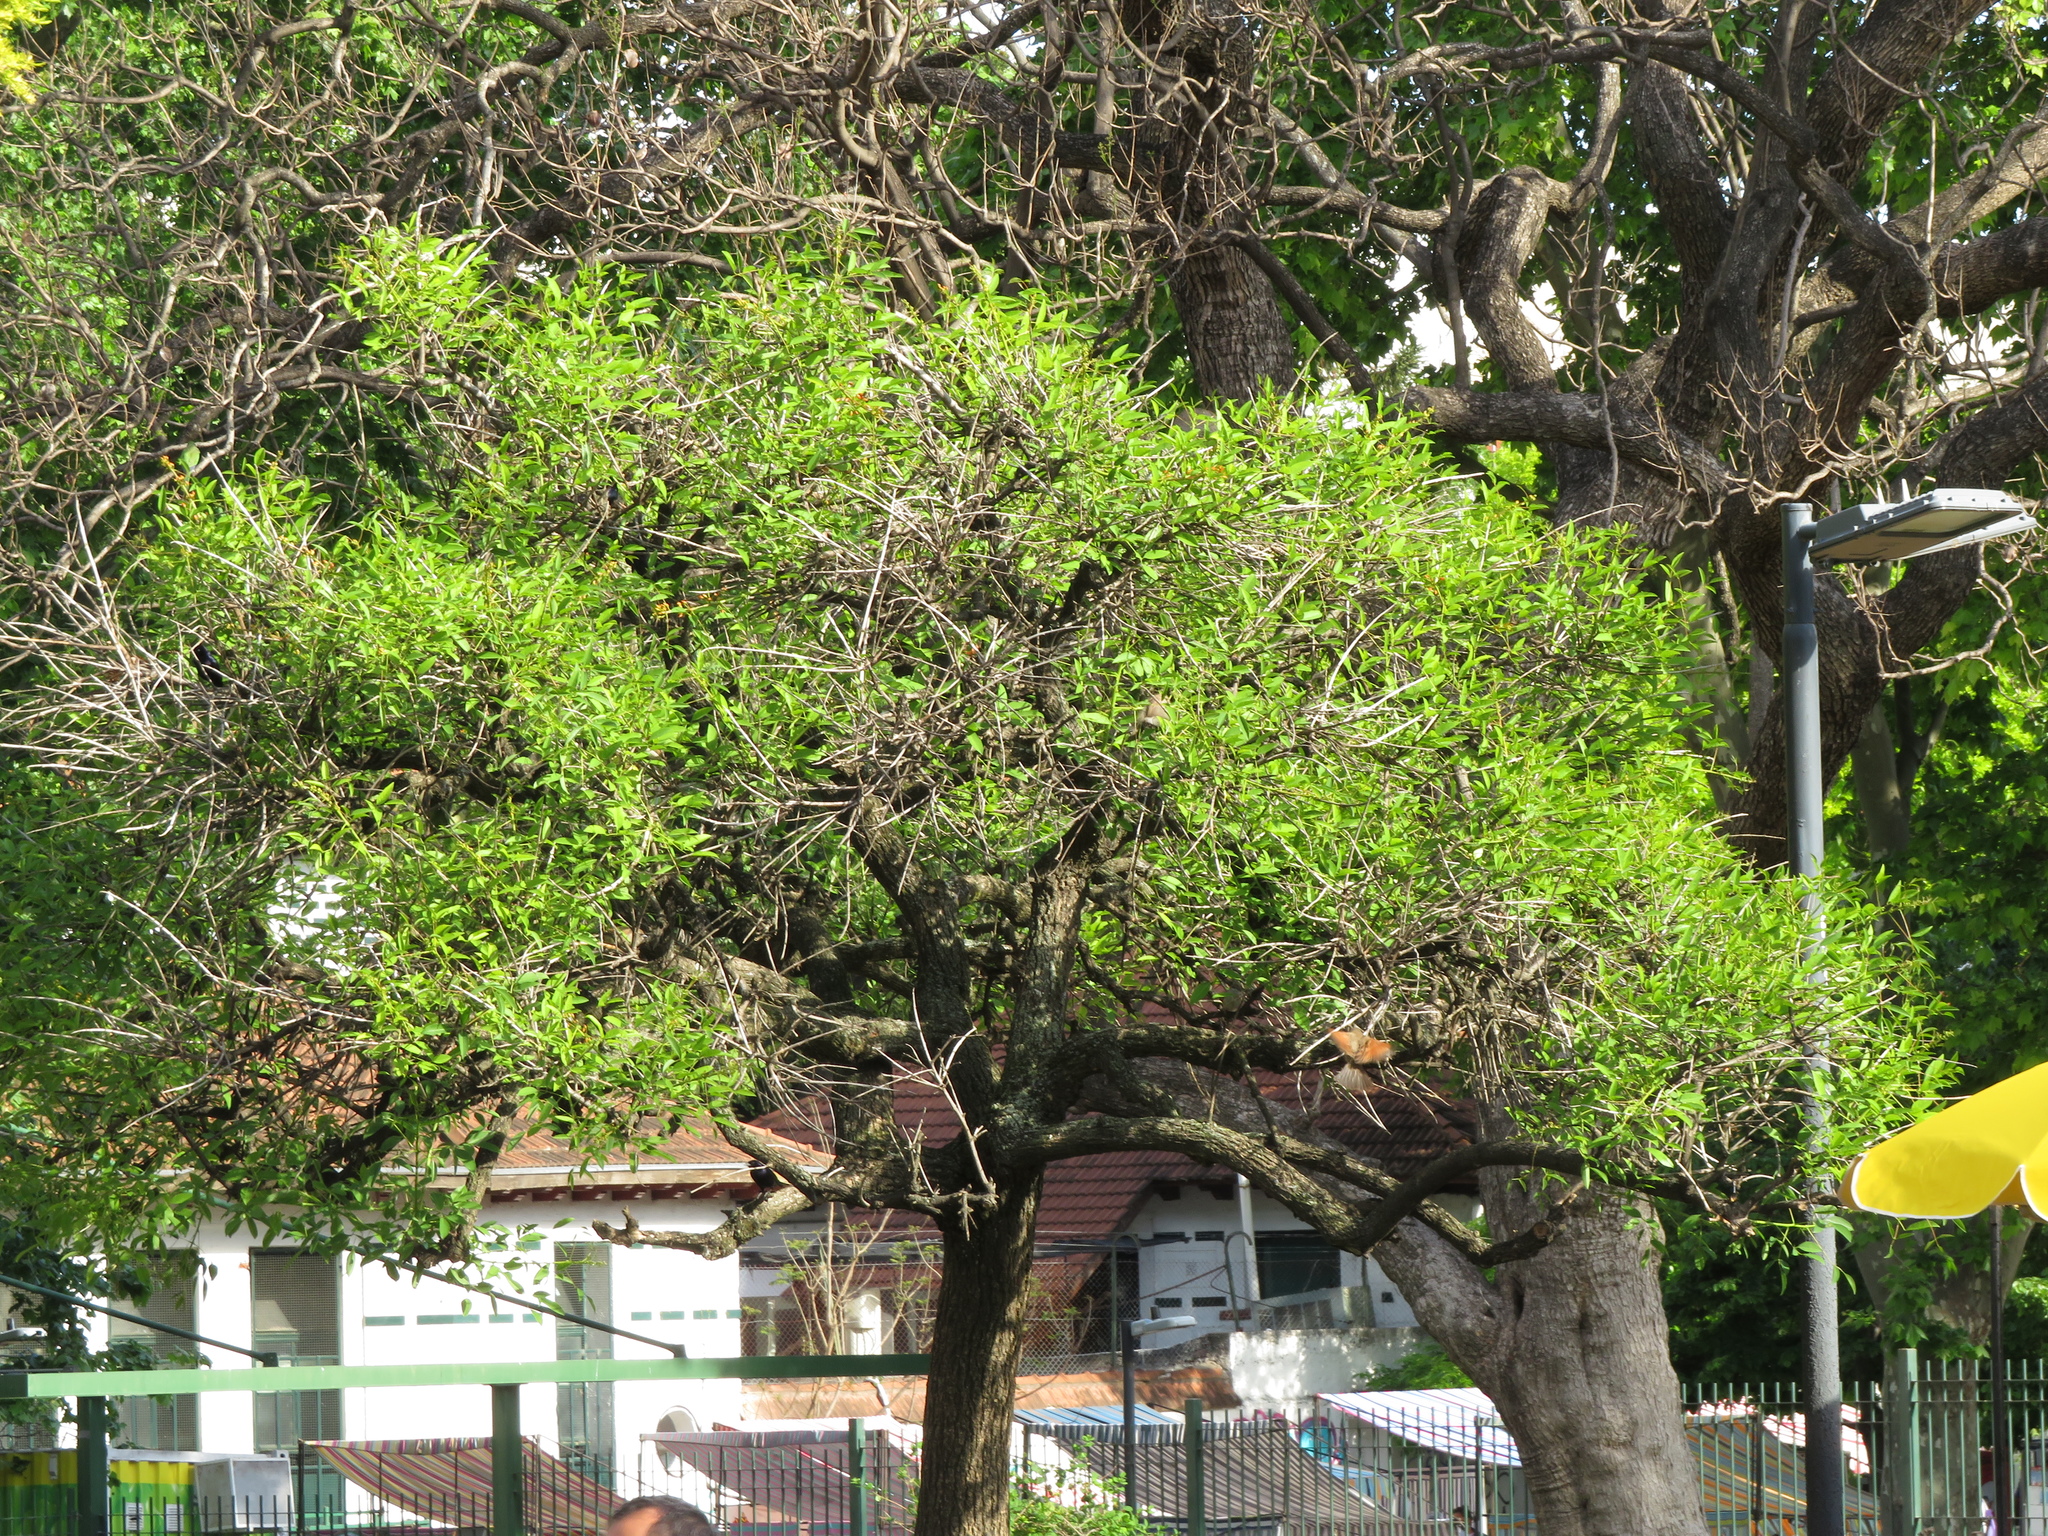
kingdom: Plantae
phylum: Tracheophyta
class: Magnoliopsida
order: Fabales
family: Fabaceae
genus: Erythrina
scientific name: Erythrina crista-galli
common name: Cockspur coral tree
